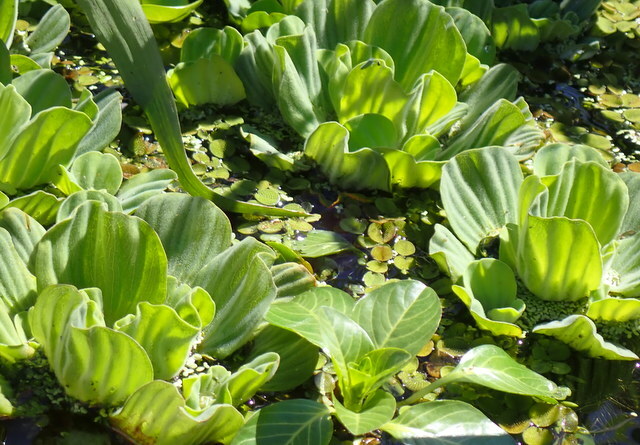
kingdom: Plantae
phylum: Tracheophyta
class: Liliopsida
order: Alismatales
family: Araceae
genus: Pistia
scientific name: Pistia stratiotes
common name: Water lettuce
